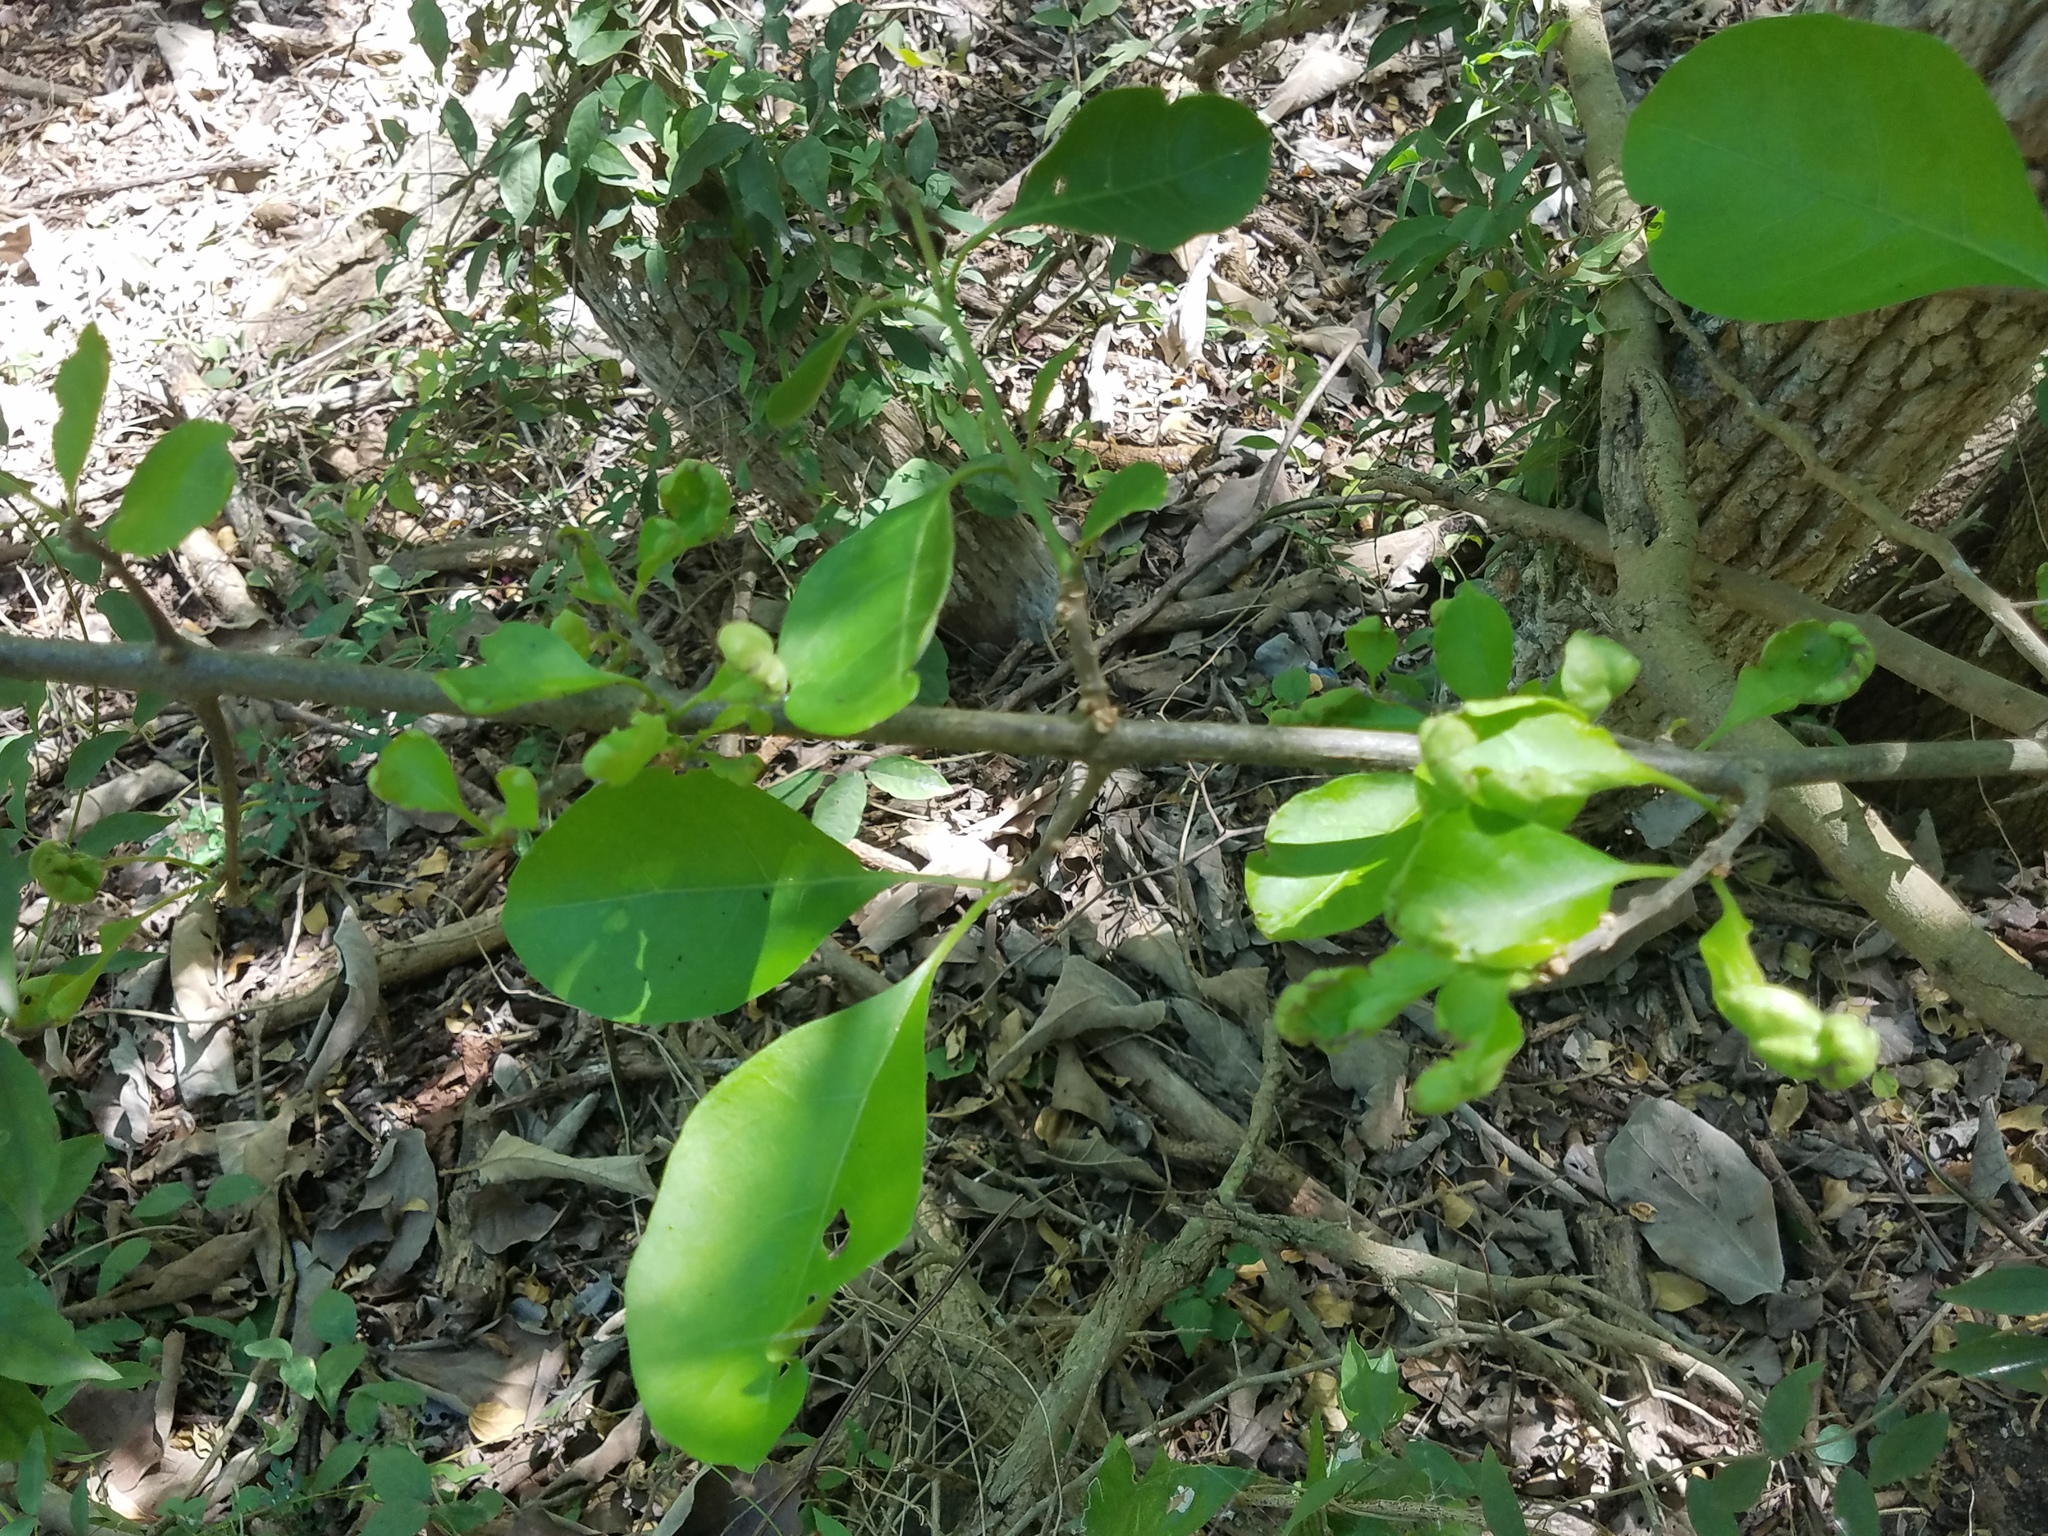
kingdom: Plantae
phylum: Tracheophyta
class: Magnoliopsida
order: Caryophyllales
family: Nyctaginaceae
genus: Pisonia
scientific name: Pisonia aculeata
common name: Cockspur vine
